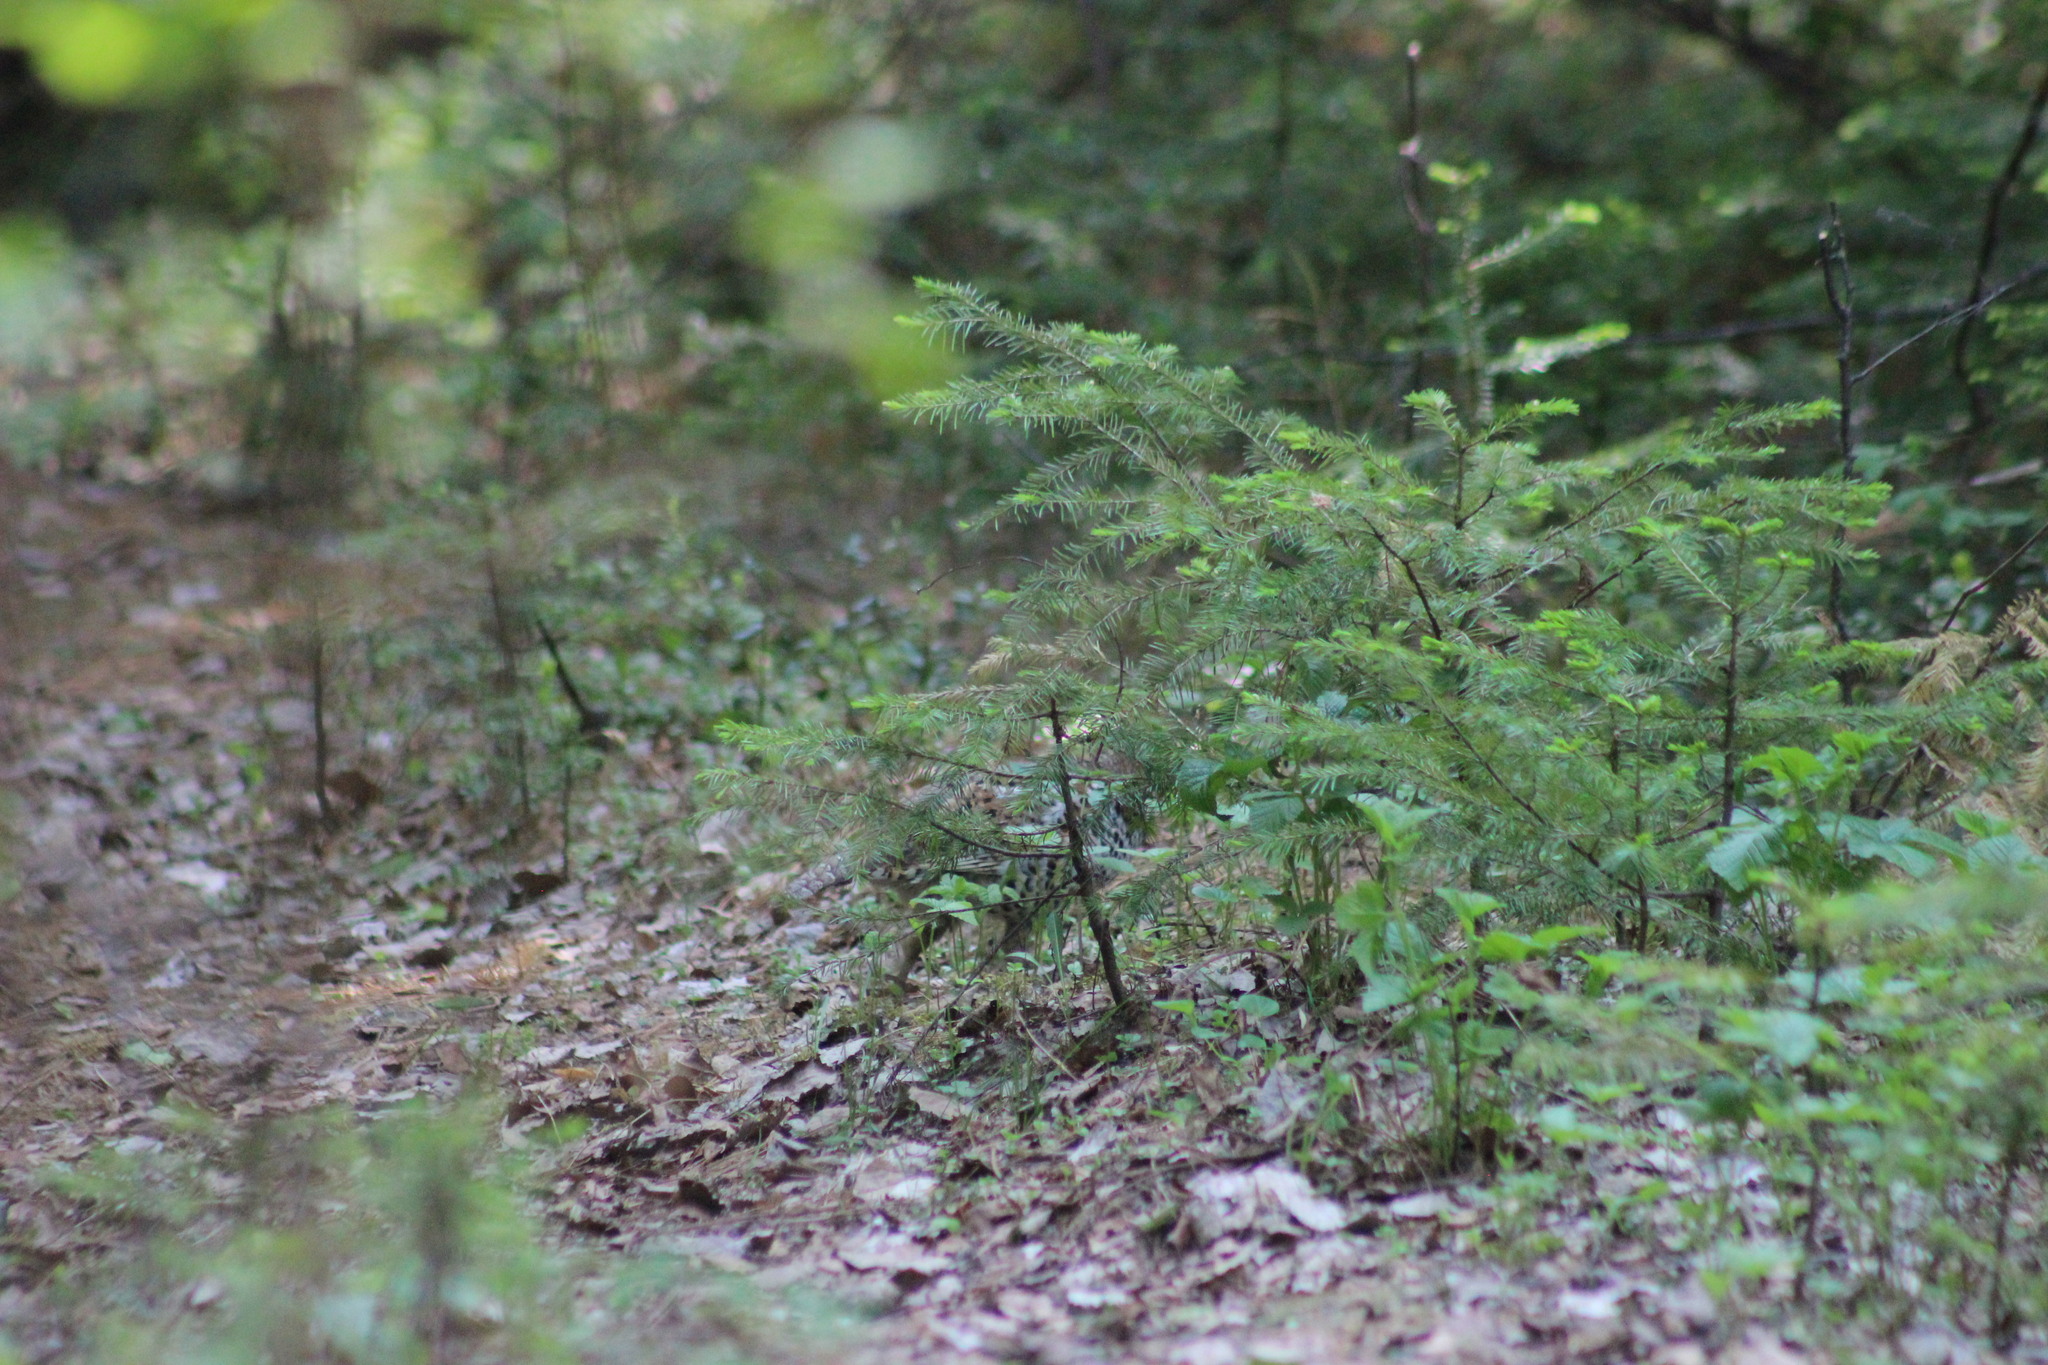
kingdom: Animalia
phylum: Chordata
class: Aves
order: Galliformes
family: Phasianidae
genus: Tetrastes
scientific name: Tetrastes bonasia
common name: Hazel grouse
